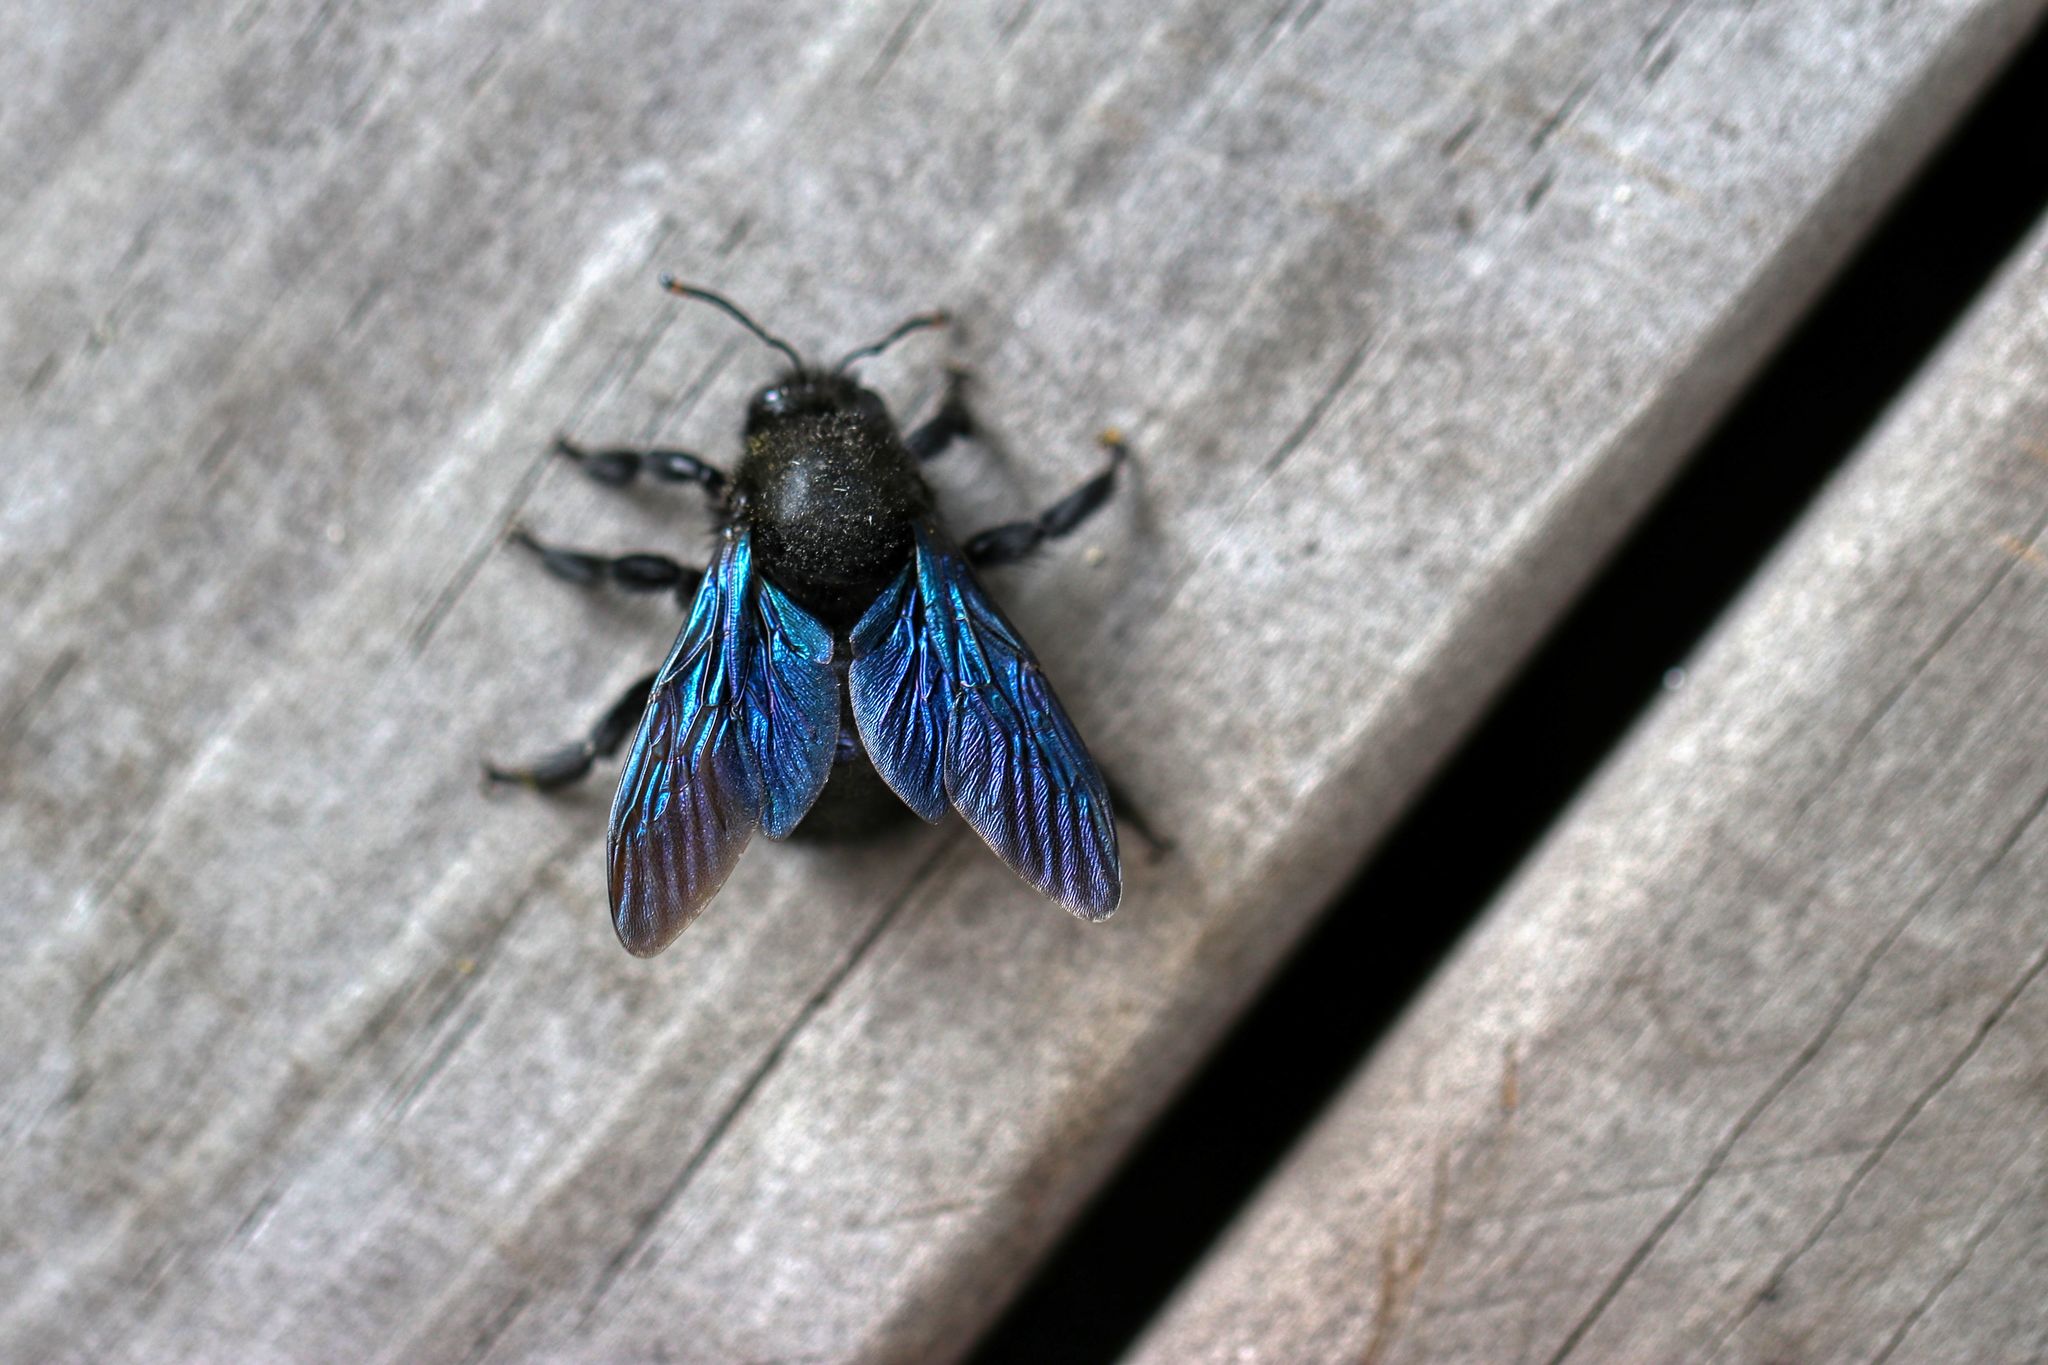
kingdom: Animalia
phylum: Arthropoda
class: Insecta
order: Hymenoptera
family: Apidae
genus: Xylocopa
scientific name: Xylocopa violacea
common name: Violet carpenter bee
